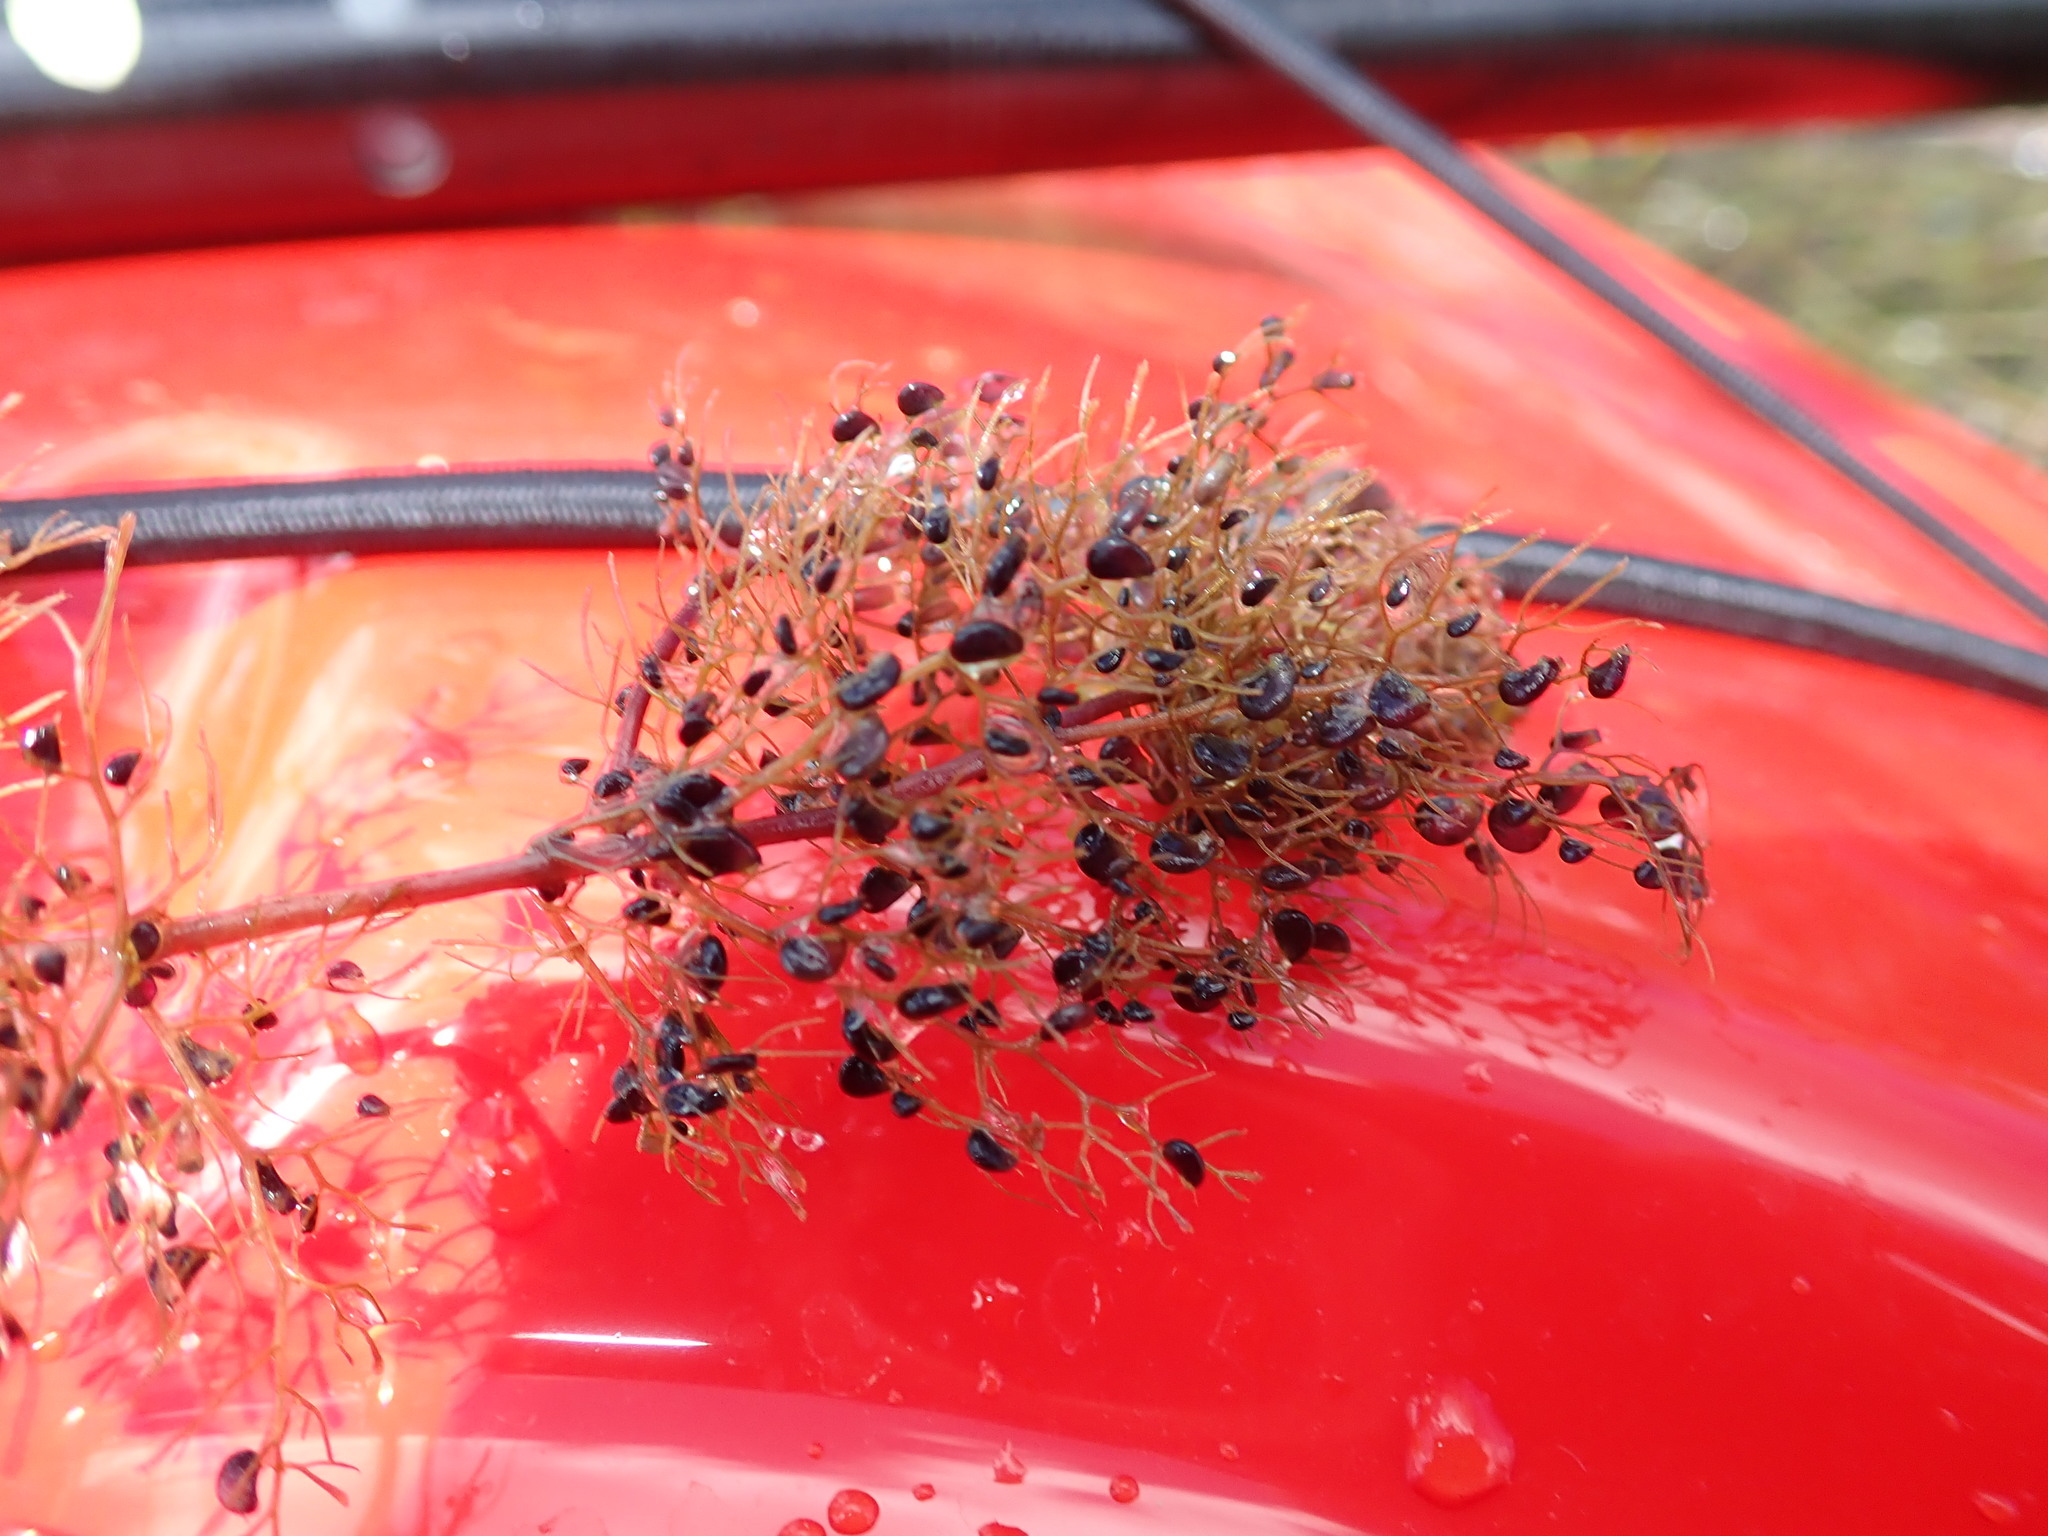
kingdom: Plantae
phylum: Tracheophyta
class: Magnoliopsida
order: Lamiales
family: Lentibulariaceae
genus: Utricularia
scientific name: Utricularia macrorhiza
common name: Common bladderwort
